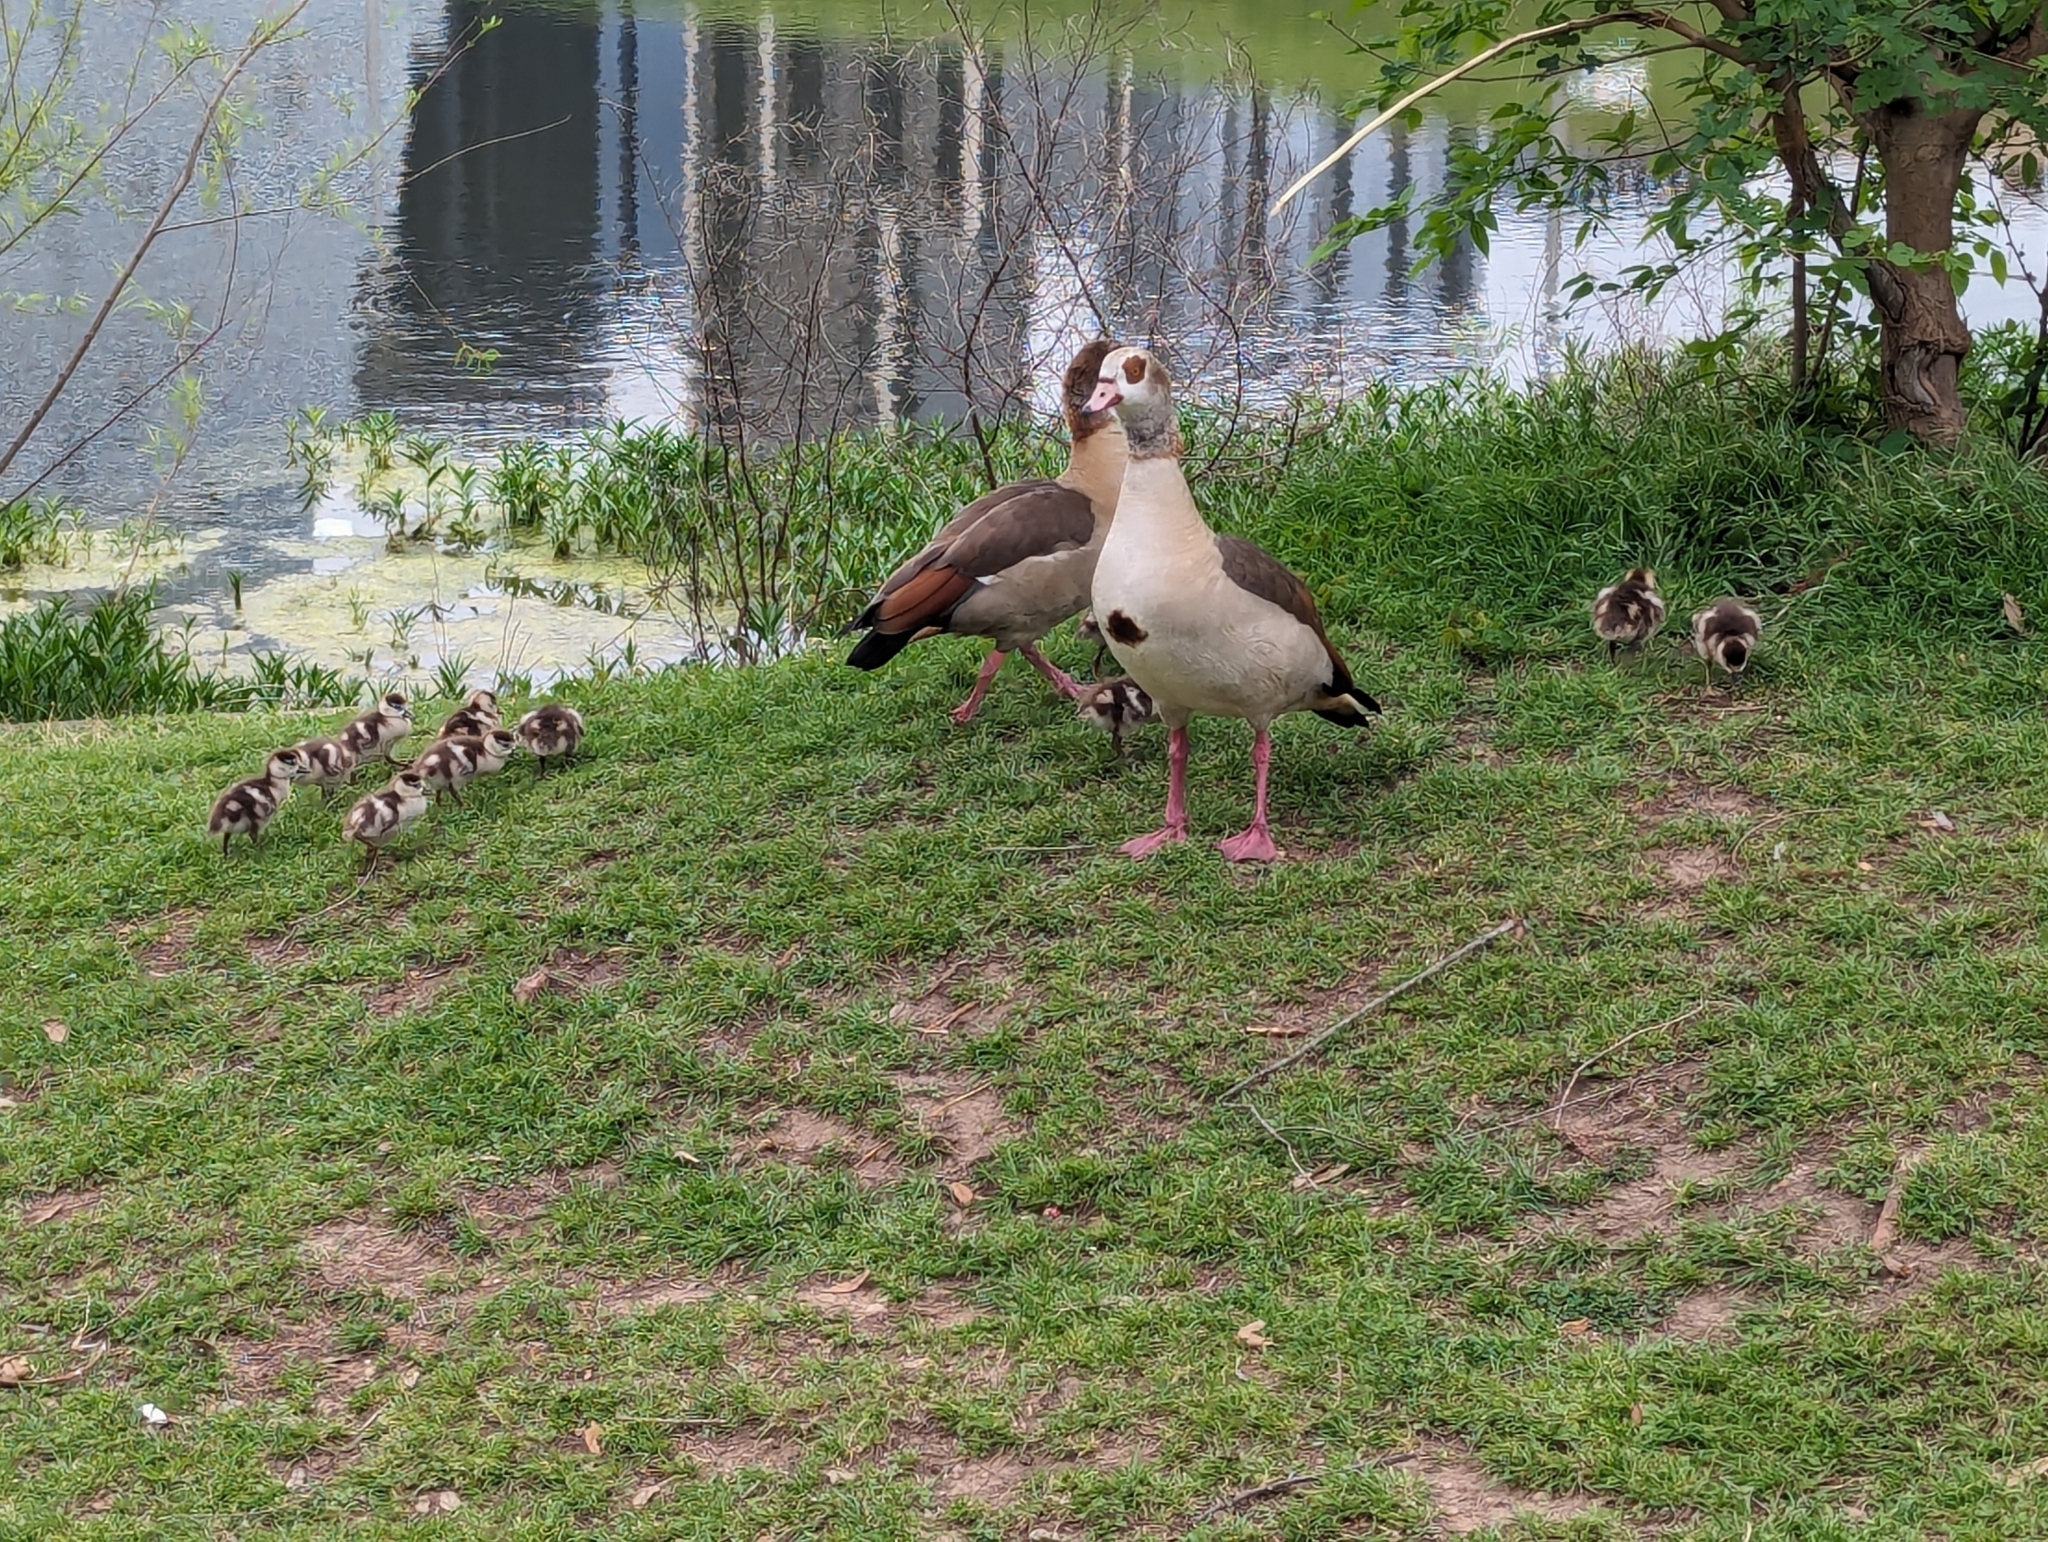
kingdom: Animalia
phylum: Chordata
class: Aves
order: Anseriformes
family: Anatidae
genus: Alopochen
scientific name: Alopochen aegyptiaca
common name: Egyptian goose
